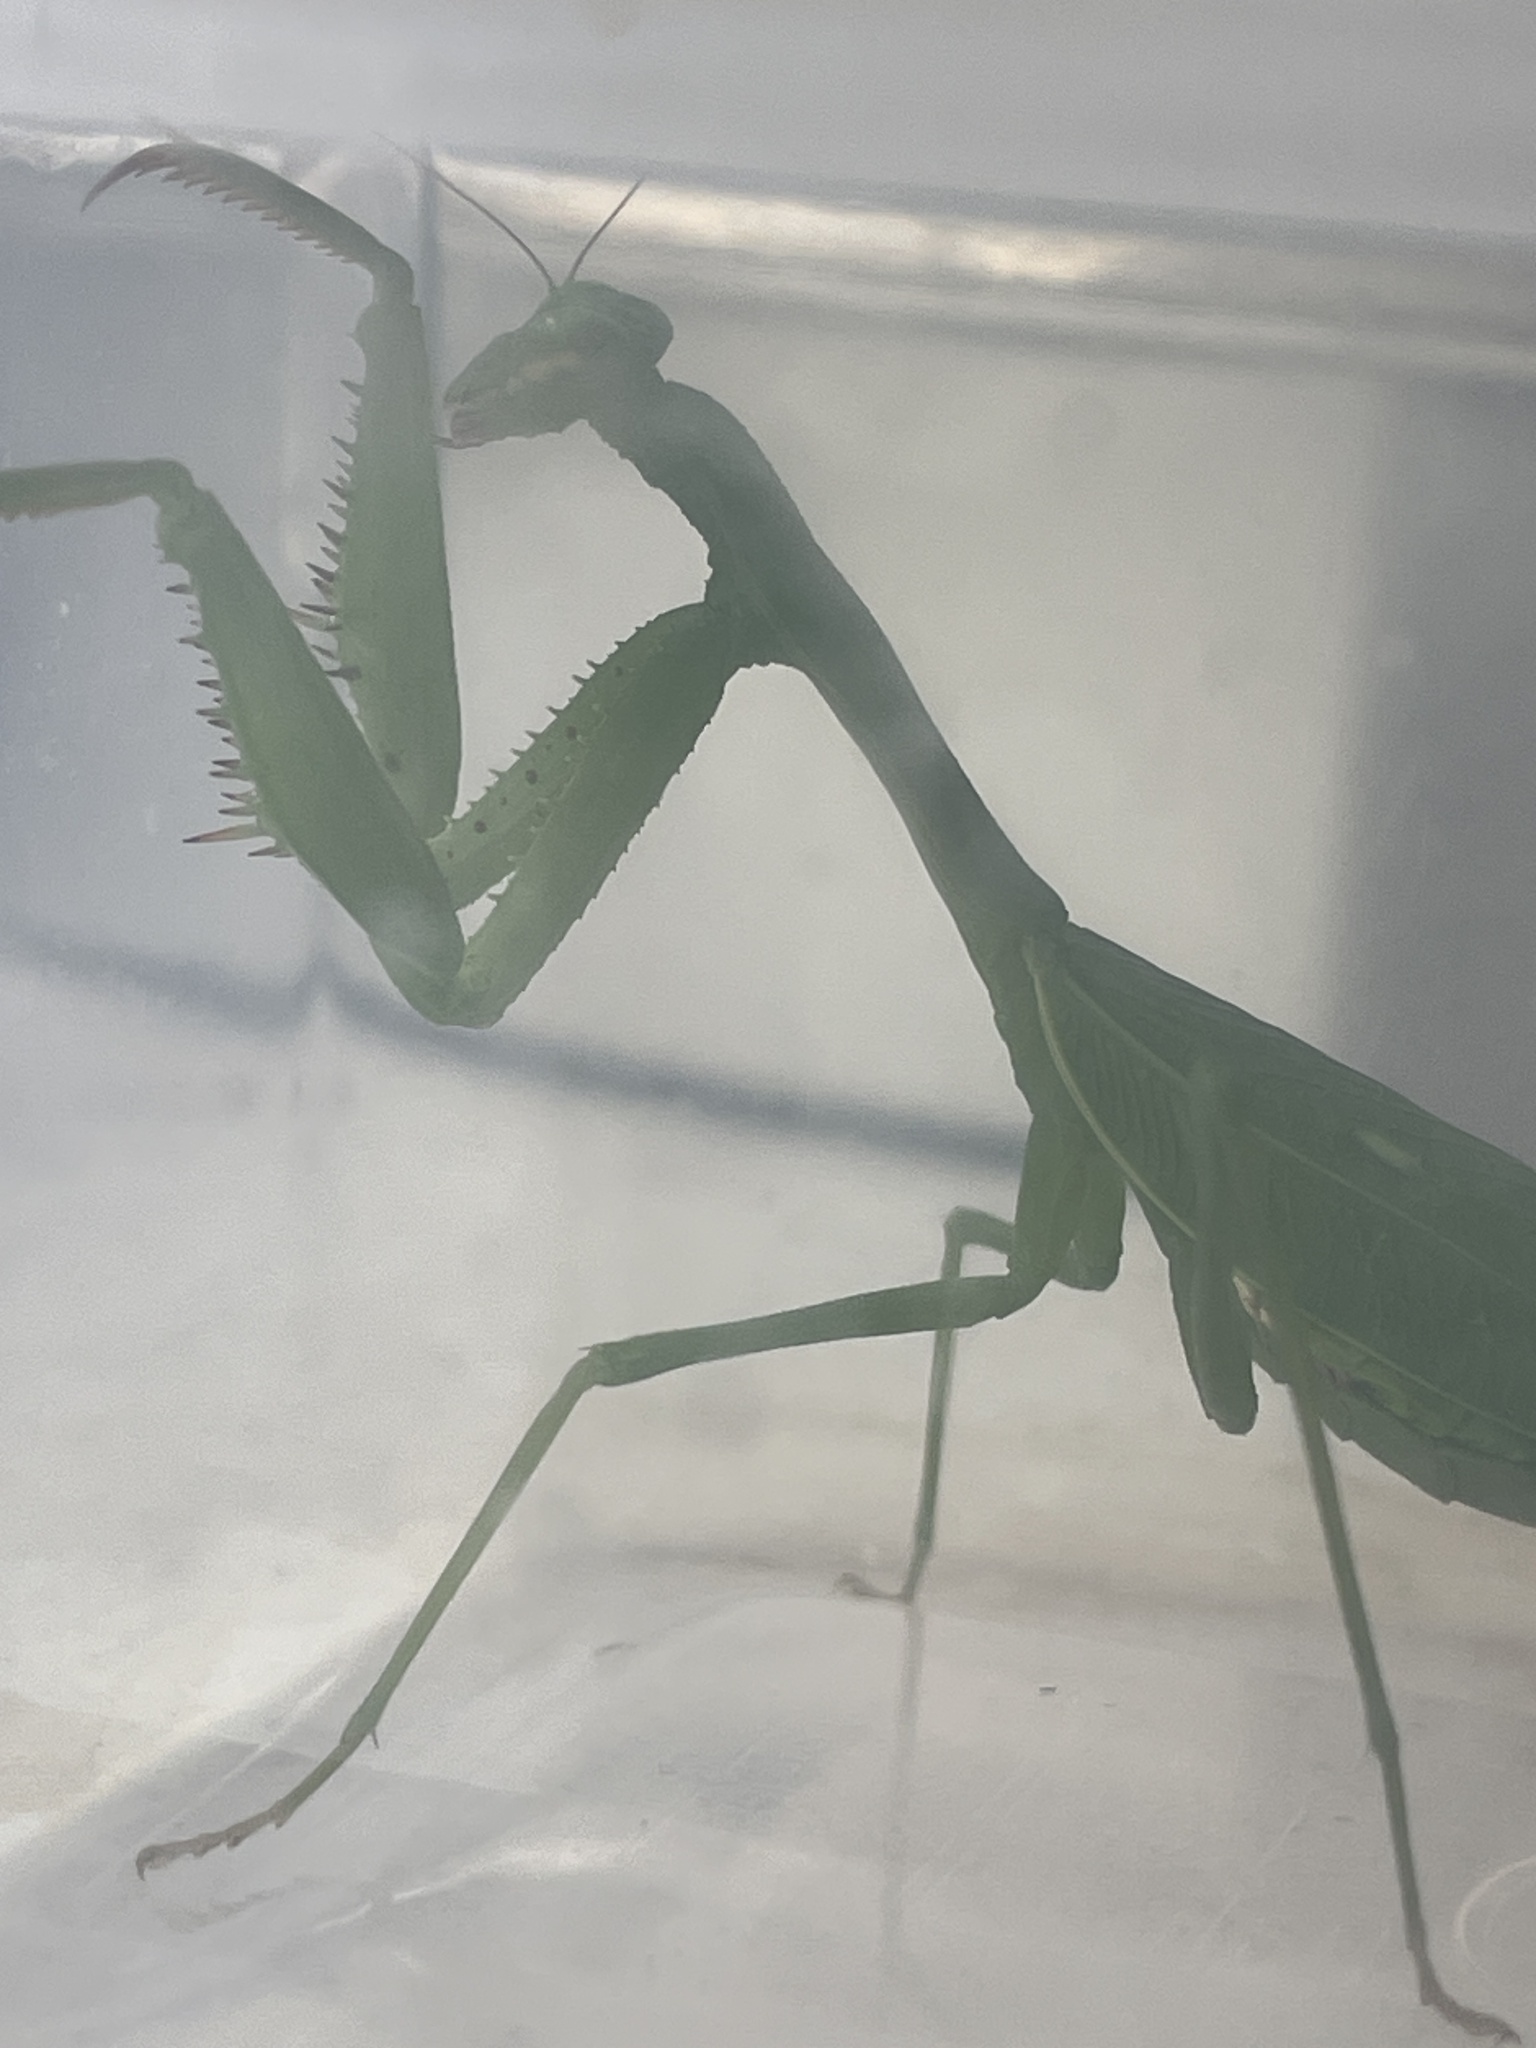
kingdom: Animalia
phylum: Arthropoda
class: Insecta
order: Mantodea
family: Miomantidae
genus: Miomantis
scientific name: Miomantis caffra
